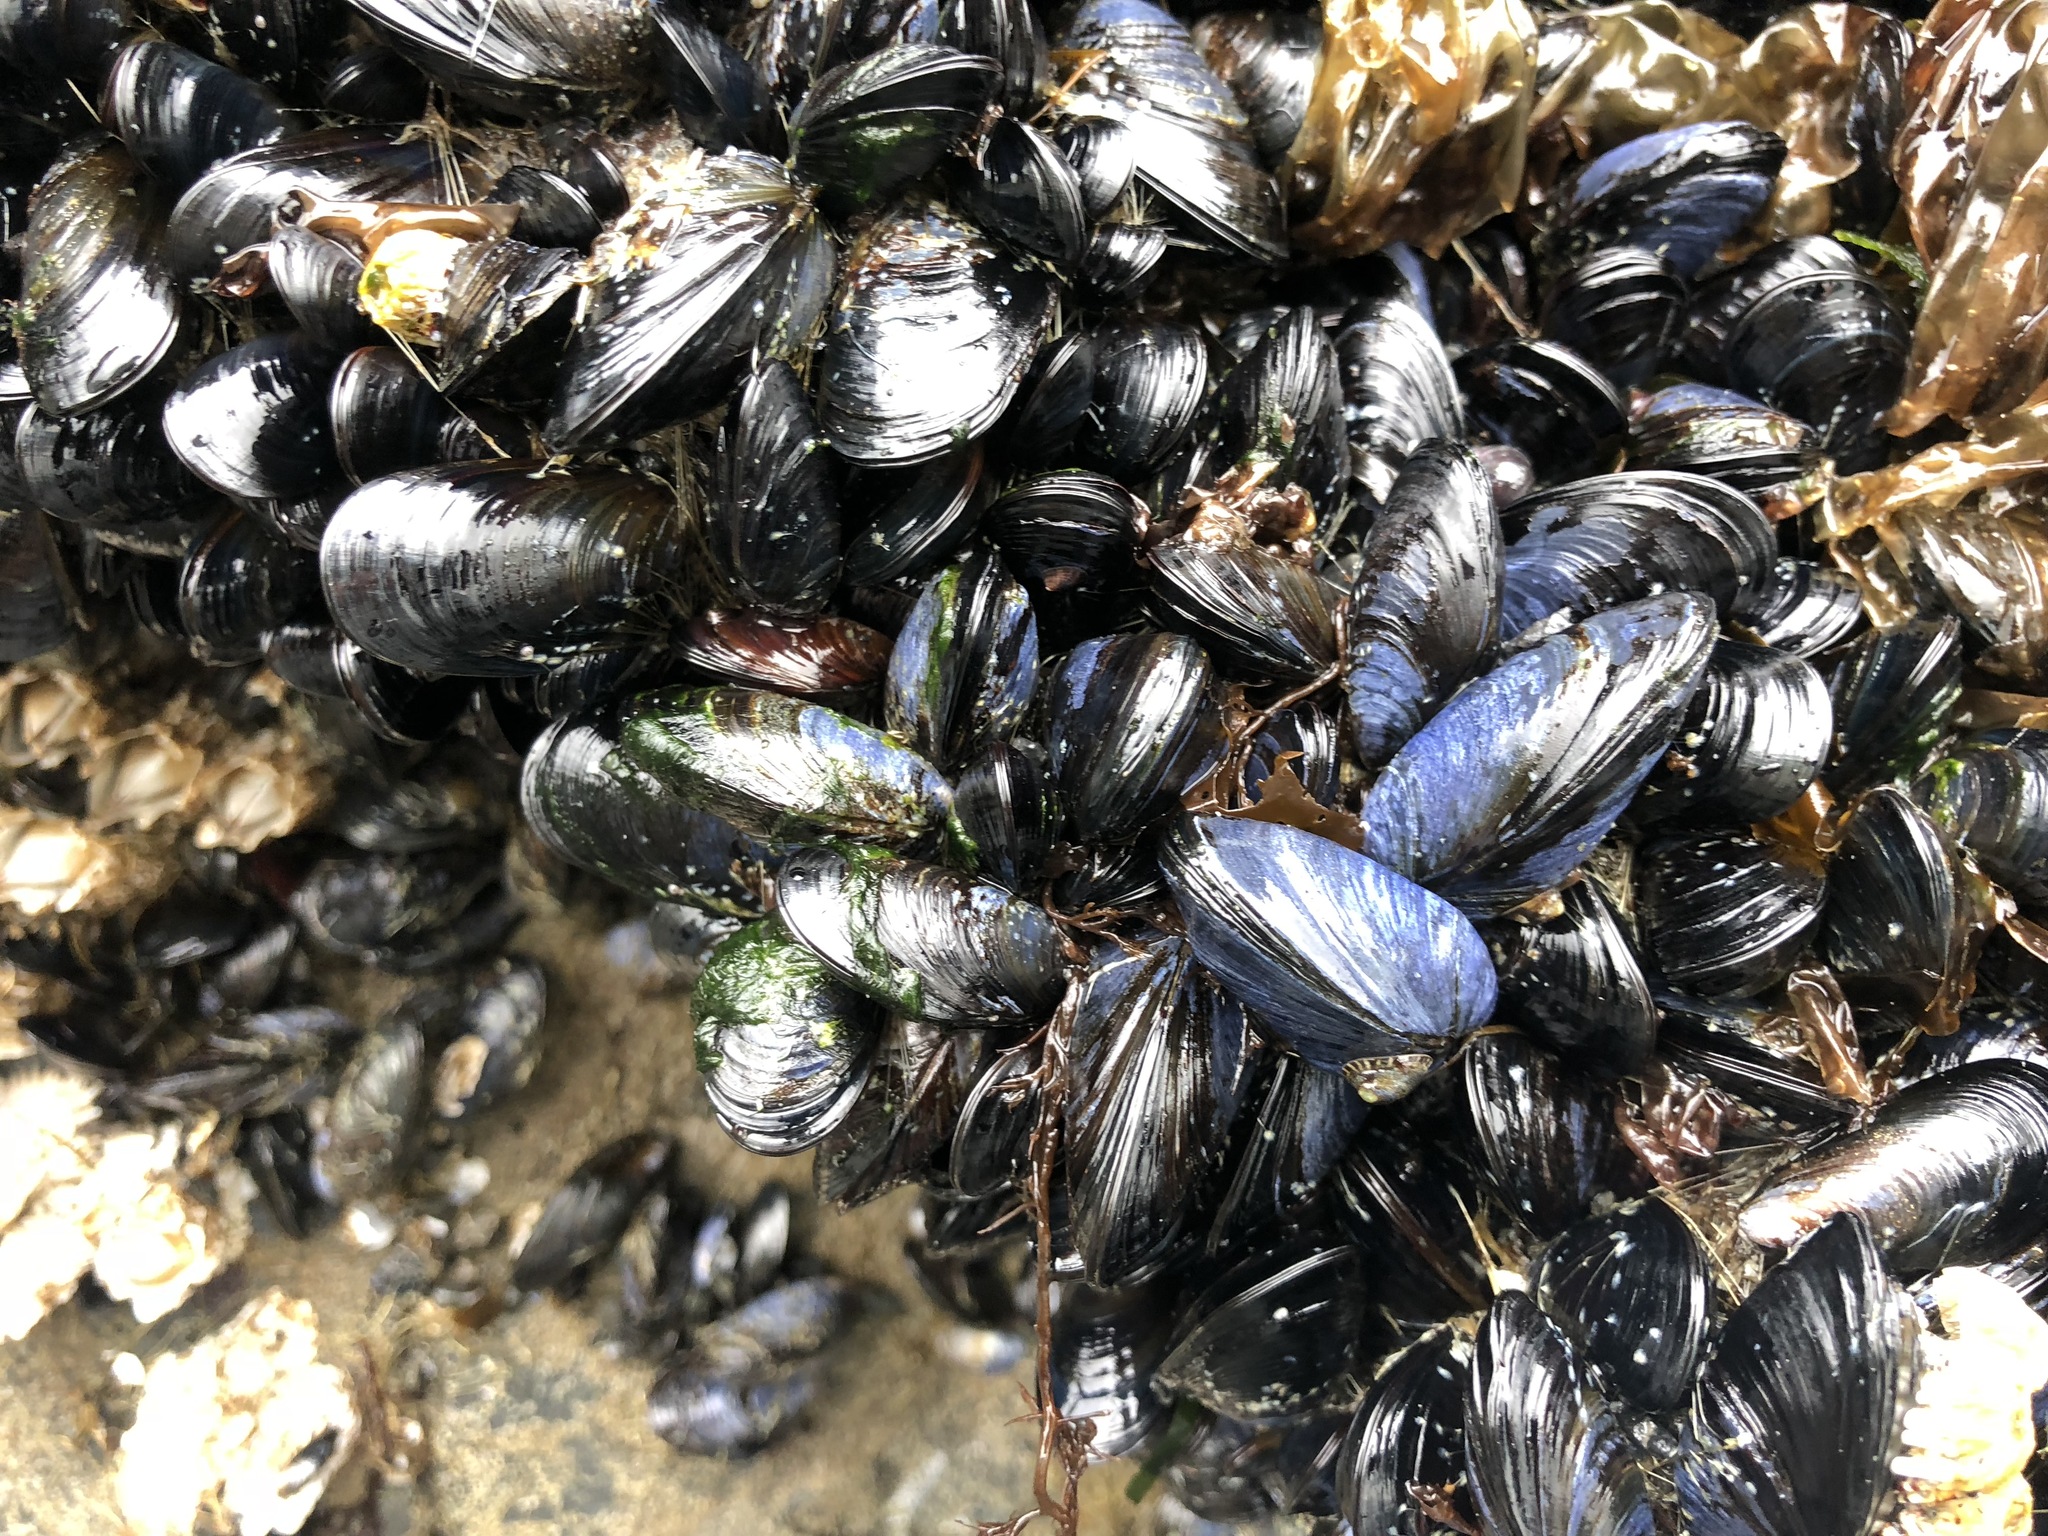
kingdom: Animalia
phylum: Mollusca
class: Bivalvia
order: Mytilida
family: Mytilidae
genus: Mytilus
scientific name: Mytilus trossulus
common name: Northern blue mussel
